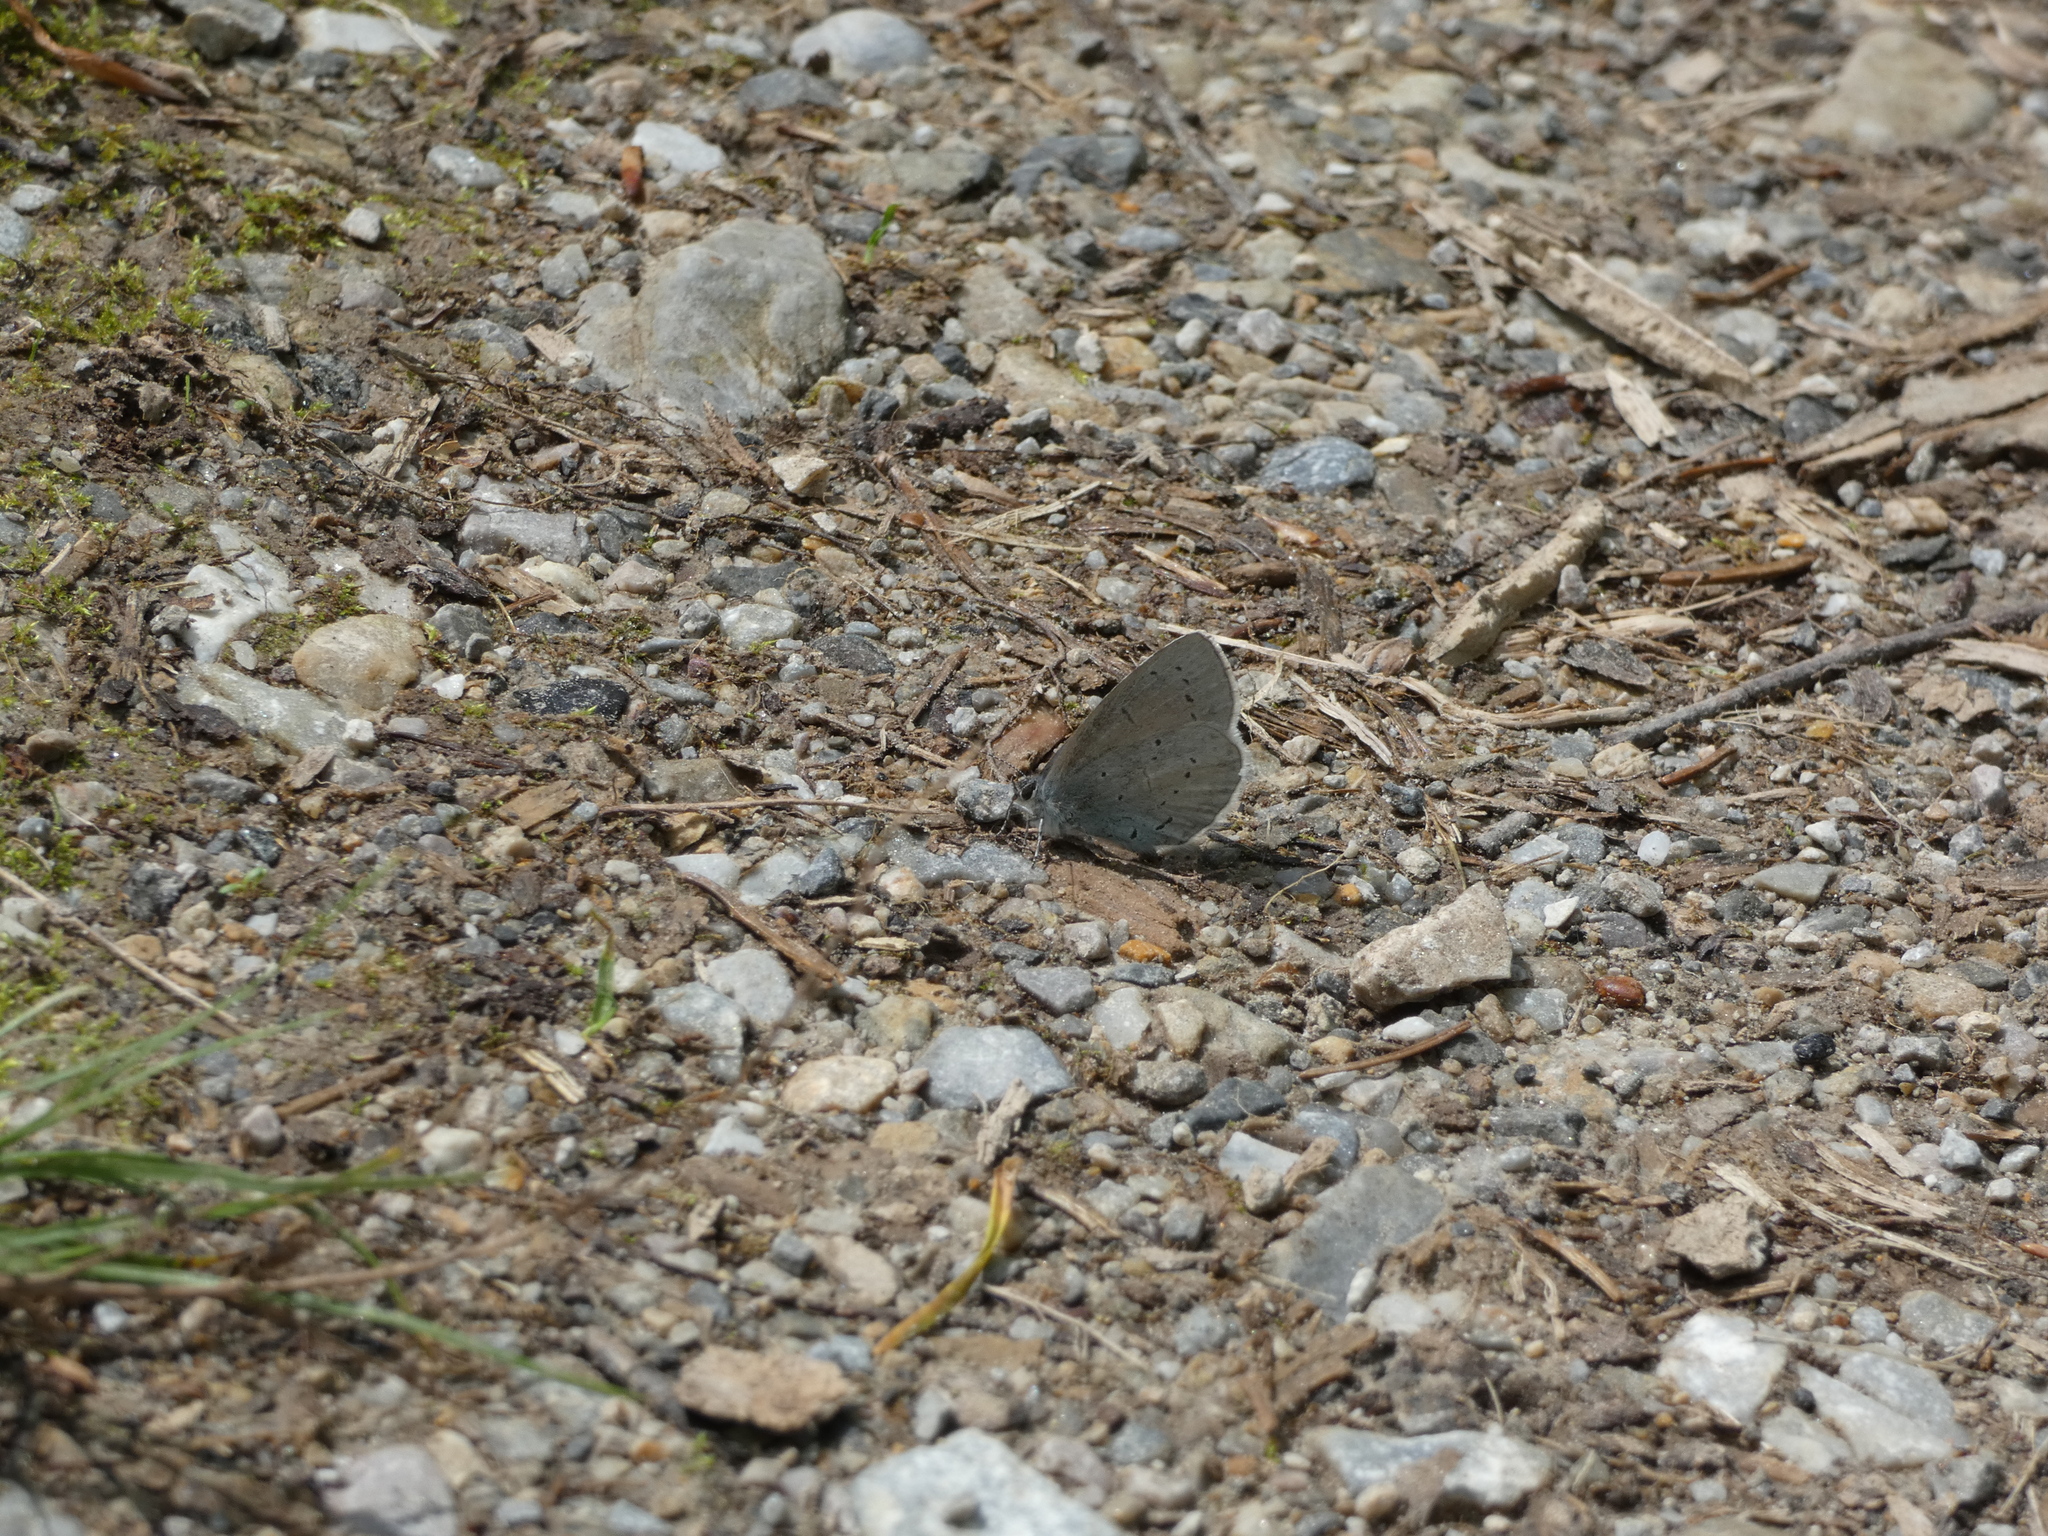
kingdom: Animalia
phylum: Arthropoda
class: Insecta
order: Lepidoptera
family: Lycaenidae
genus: Celastrina
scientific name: Celastrina argiolus
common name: Holly blue
